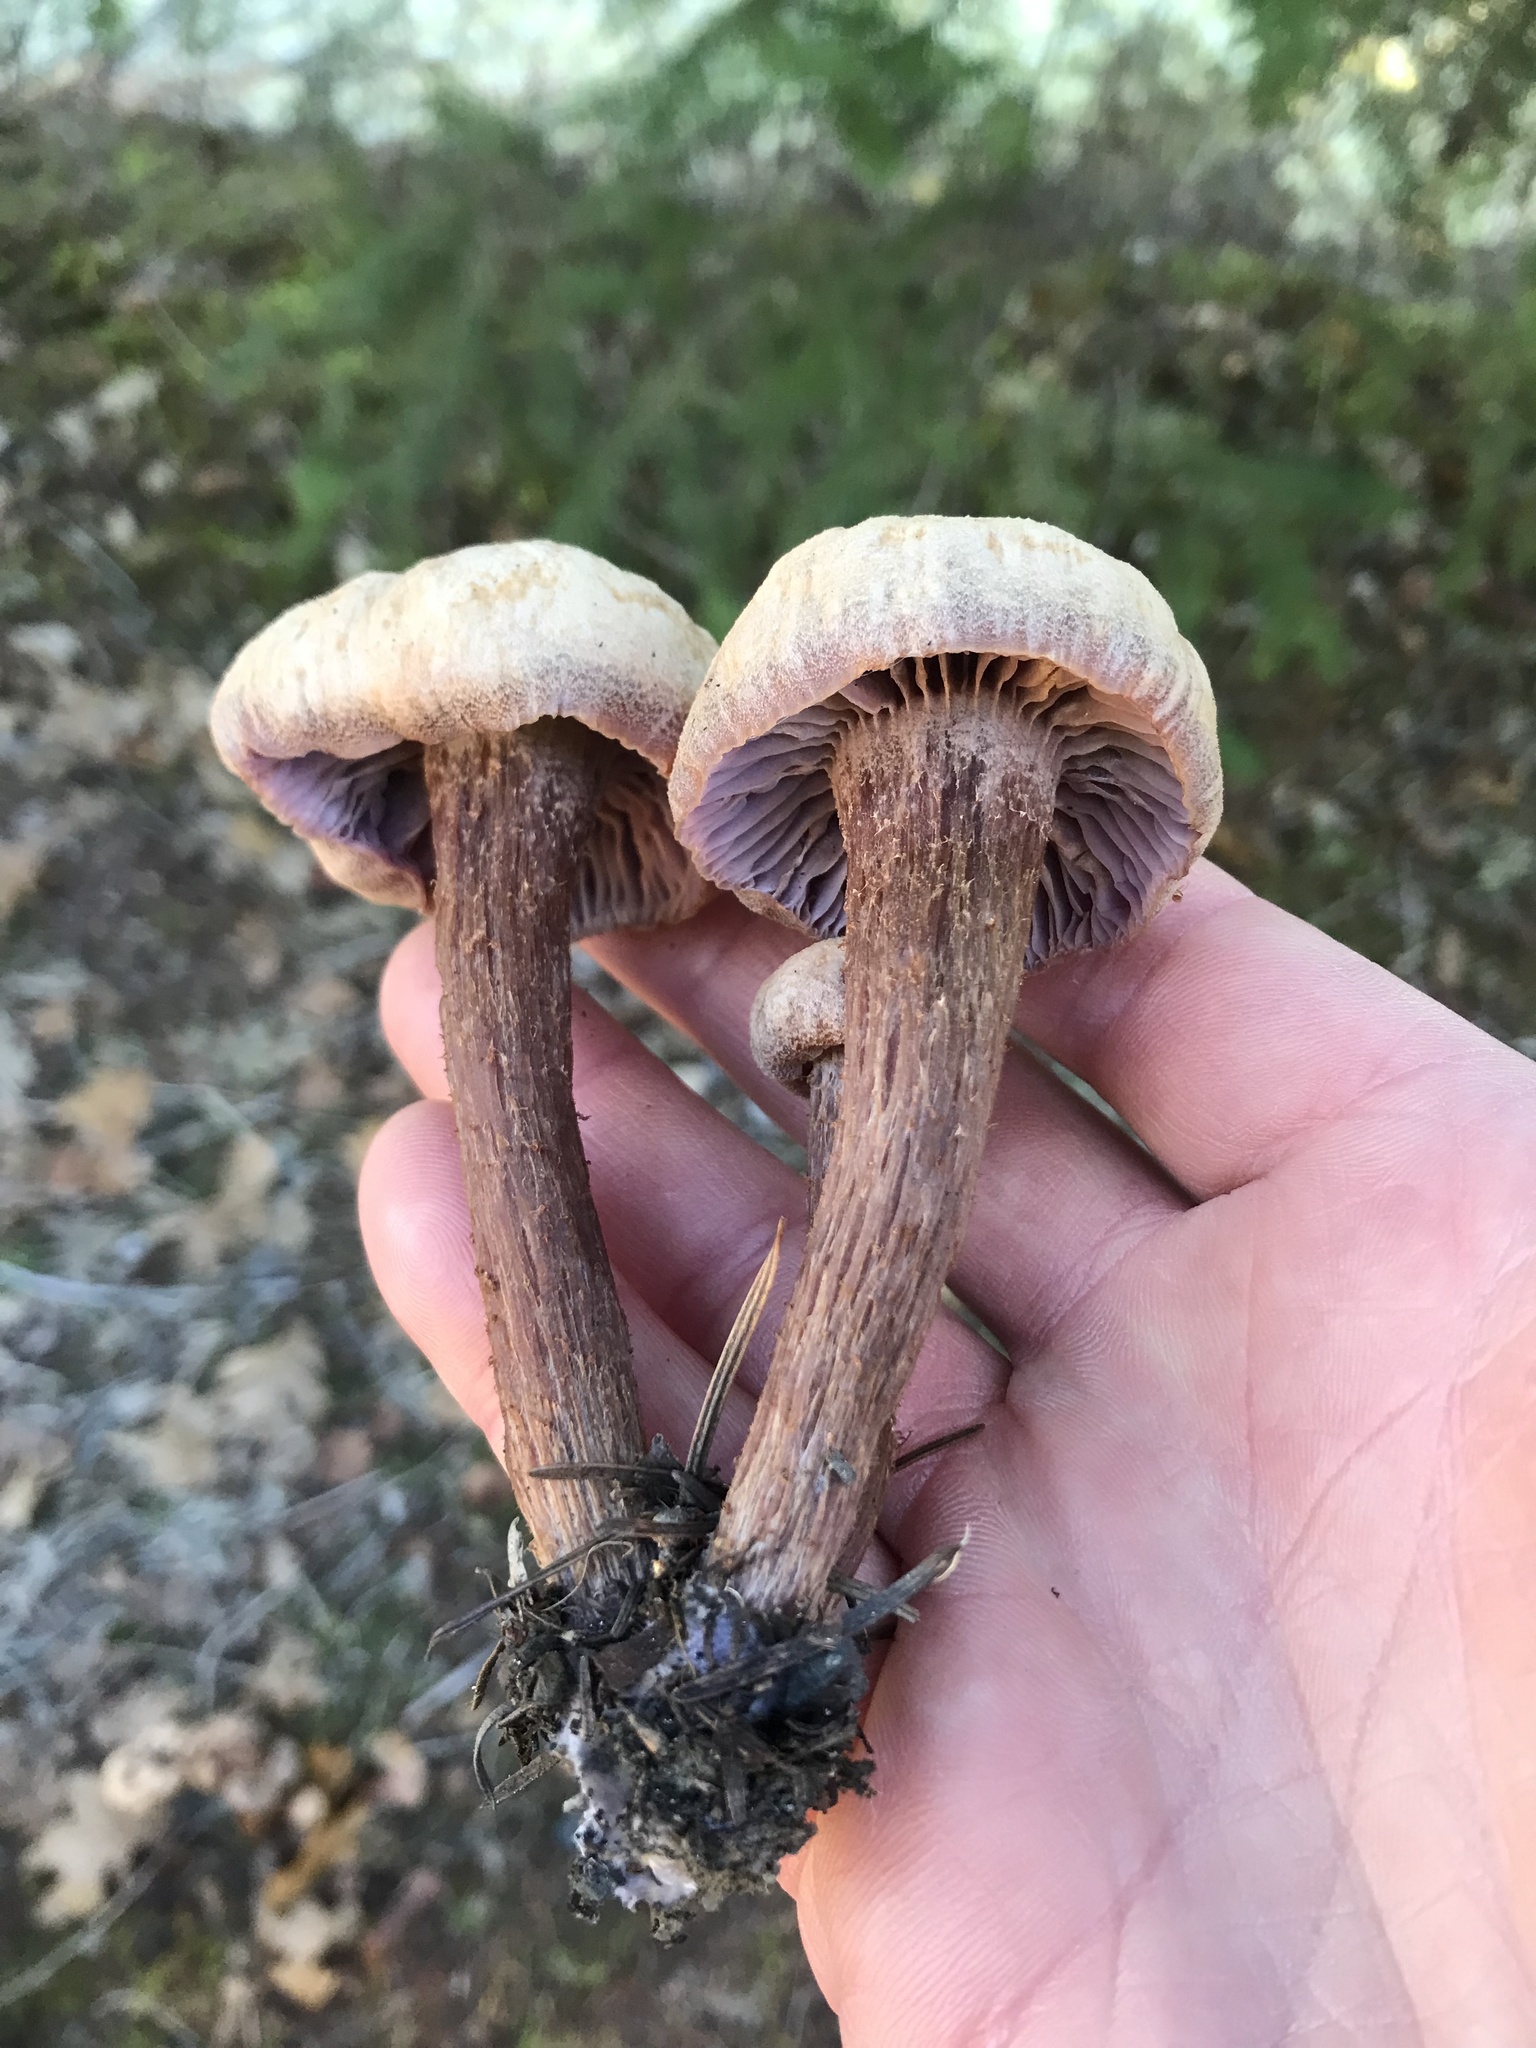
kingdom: Fungi
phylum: Basidiomycota
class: Agaricomycetes
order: Agaricales
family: Hydnangiaceae
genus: Laccaria
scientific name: Laccaria amethysteo-occidentalis
